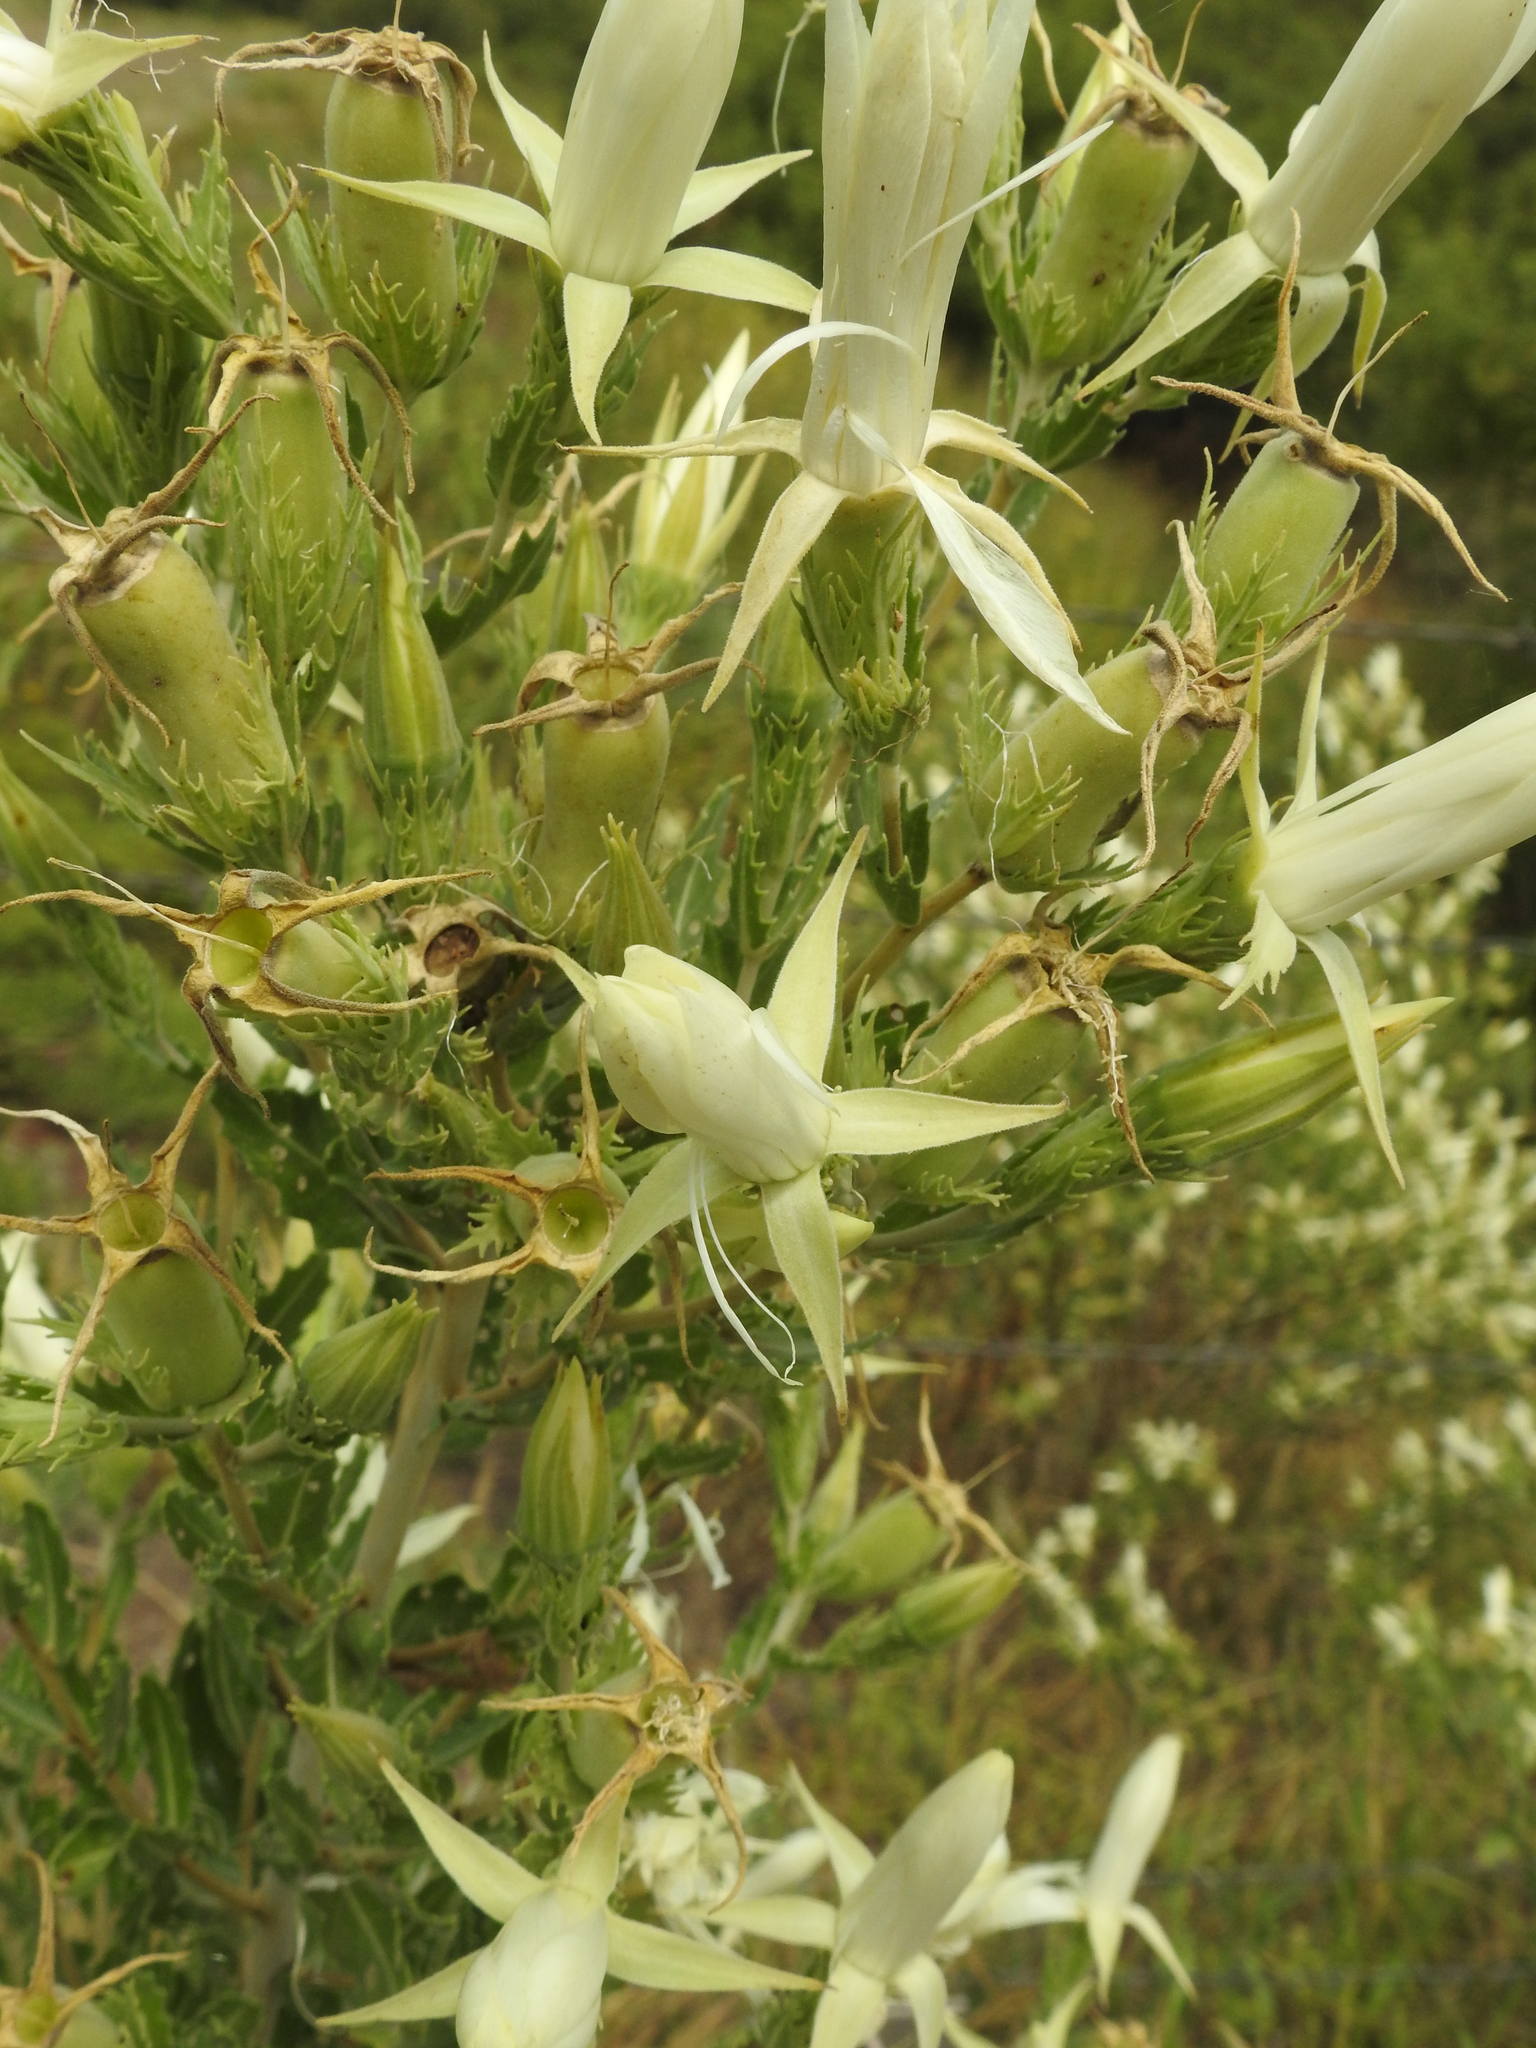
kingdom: Plantae
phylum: Tracheophyta
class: Magnoliopsida
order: Cornales
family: Loasaceae
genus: Mentzelia
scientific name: Mentzelia nuda
